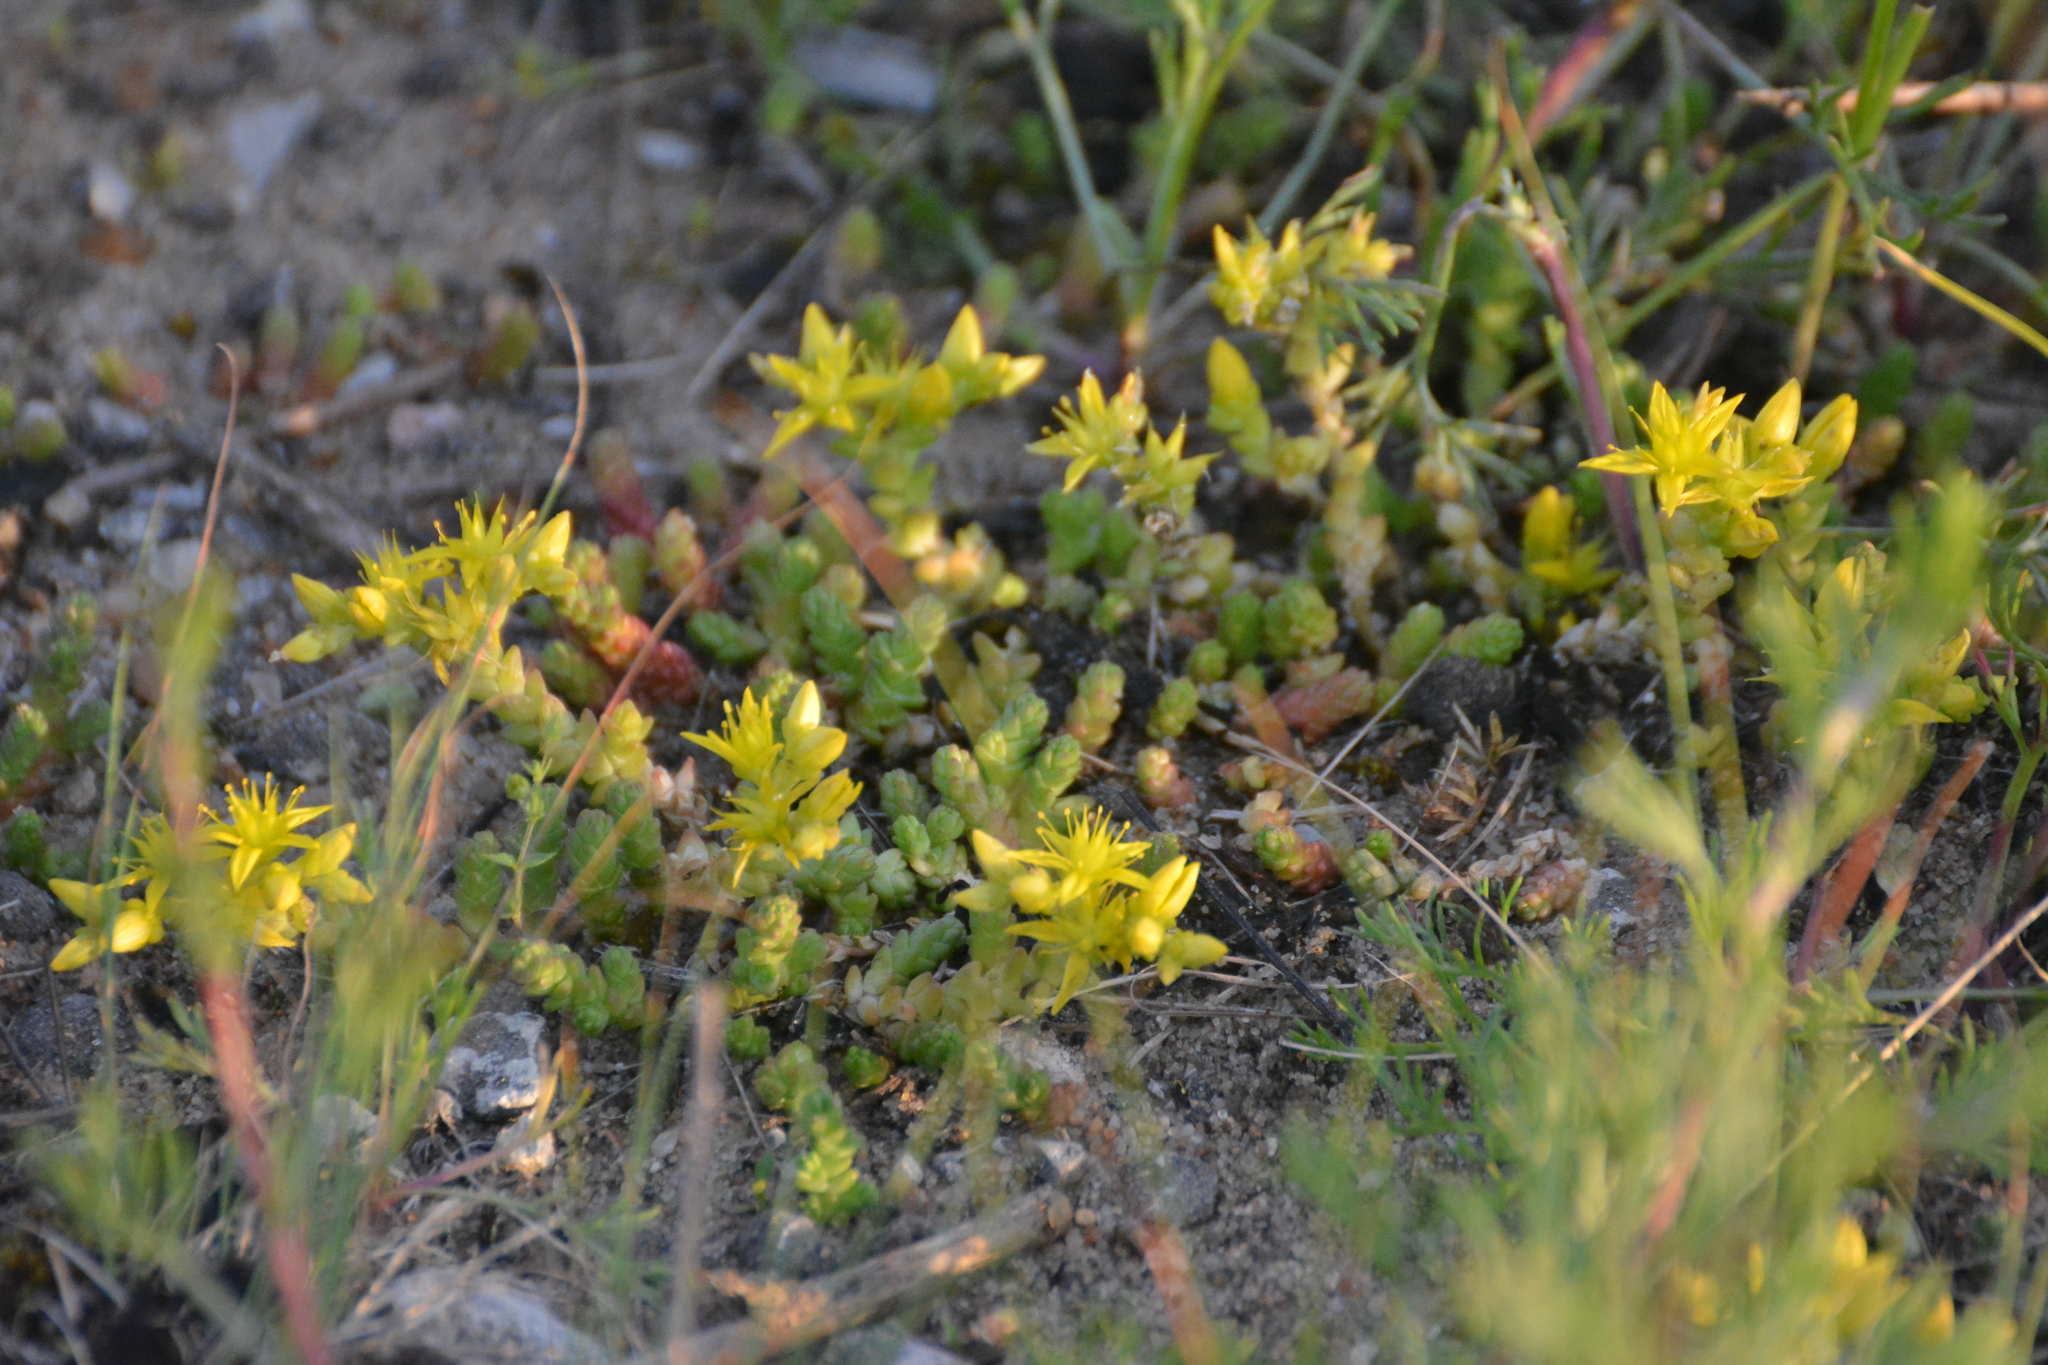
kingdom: Plantae
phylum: Tracheophyta
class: Magnoliopsida
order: Saxifragales
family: Crassulaceae
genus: Sedum
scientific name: Sedum acre
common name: Biting stonecrop
